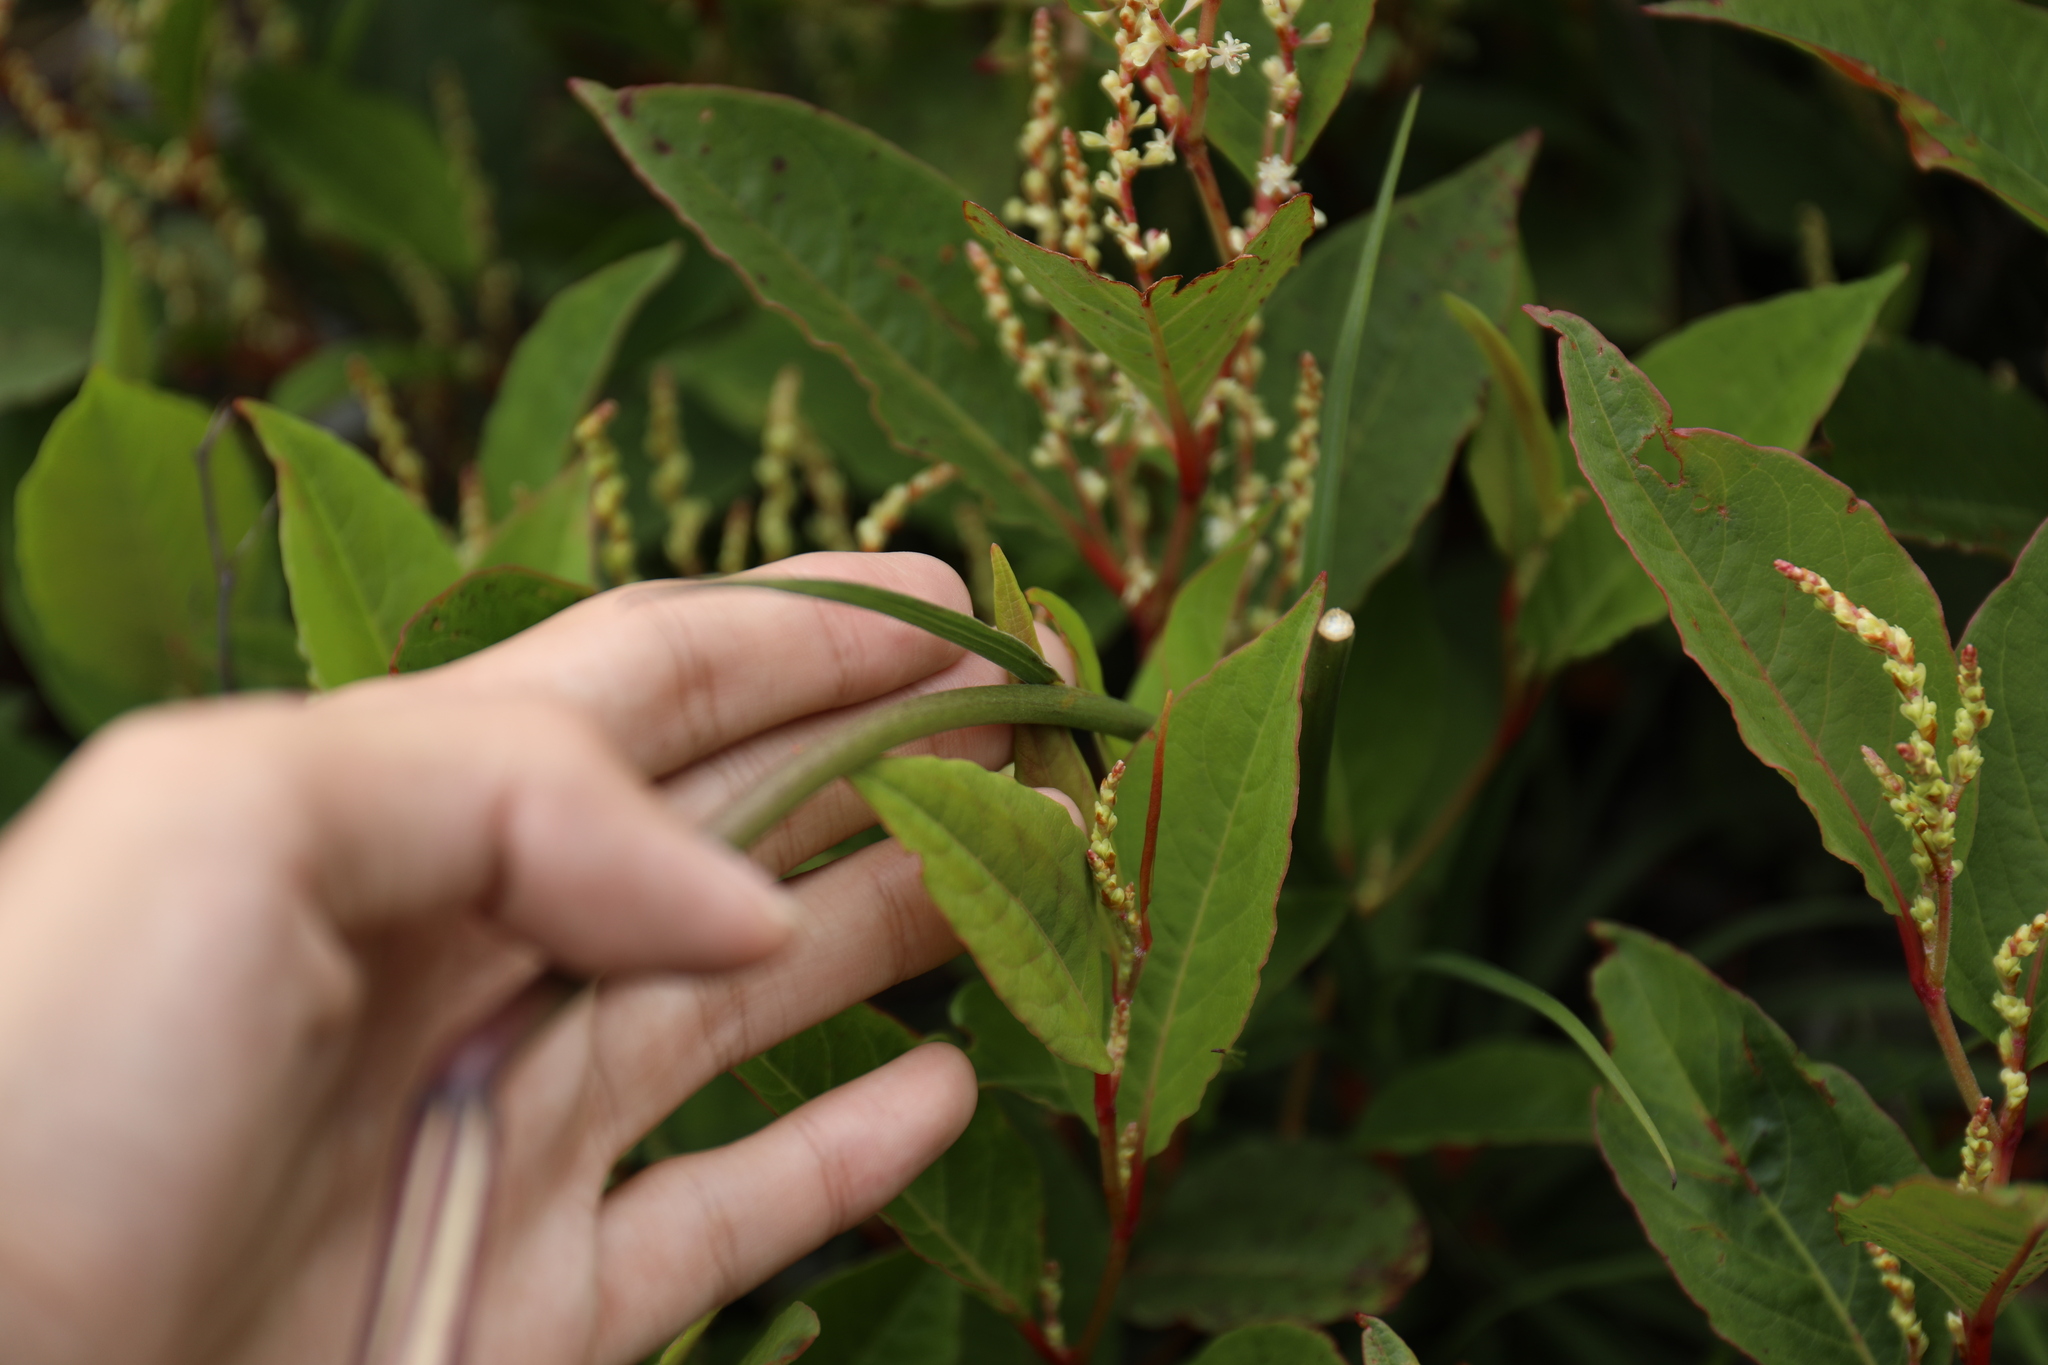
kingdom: Plantae
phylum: Tracheophyta
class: Liliopsida
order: Liliales
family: Liliaceae
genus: Lilium
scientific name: Lilium formosanum
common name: Formosa lily
